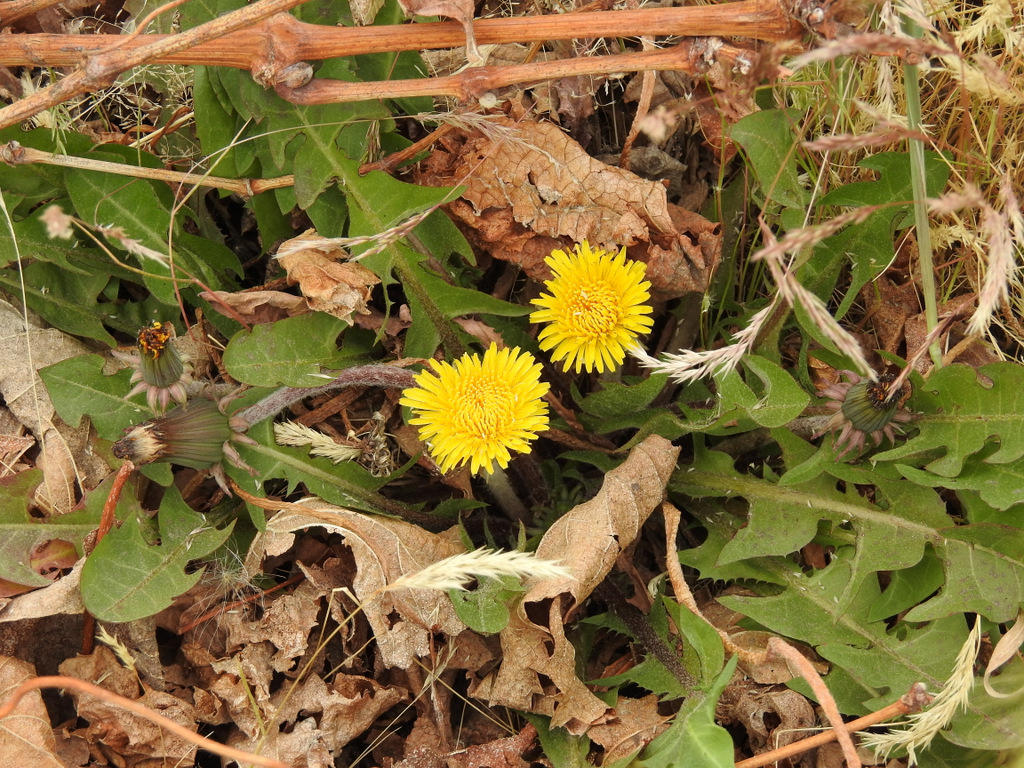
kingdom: Plantae
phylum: Tracheophyta
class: Magnoliopsida
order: Asterales
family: Asteraceae
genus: Taraxacum
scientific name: Taraxacum officinale
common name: Common dandelion
